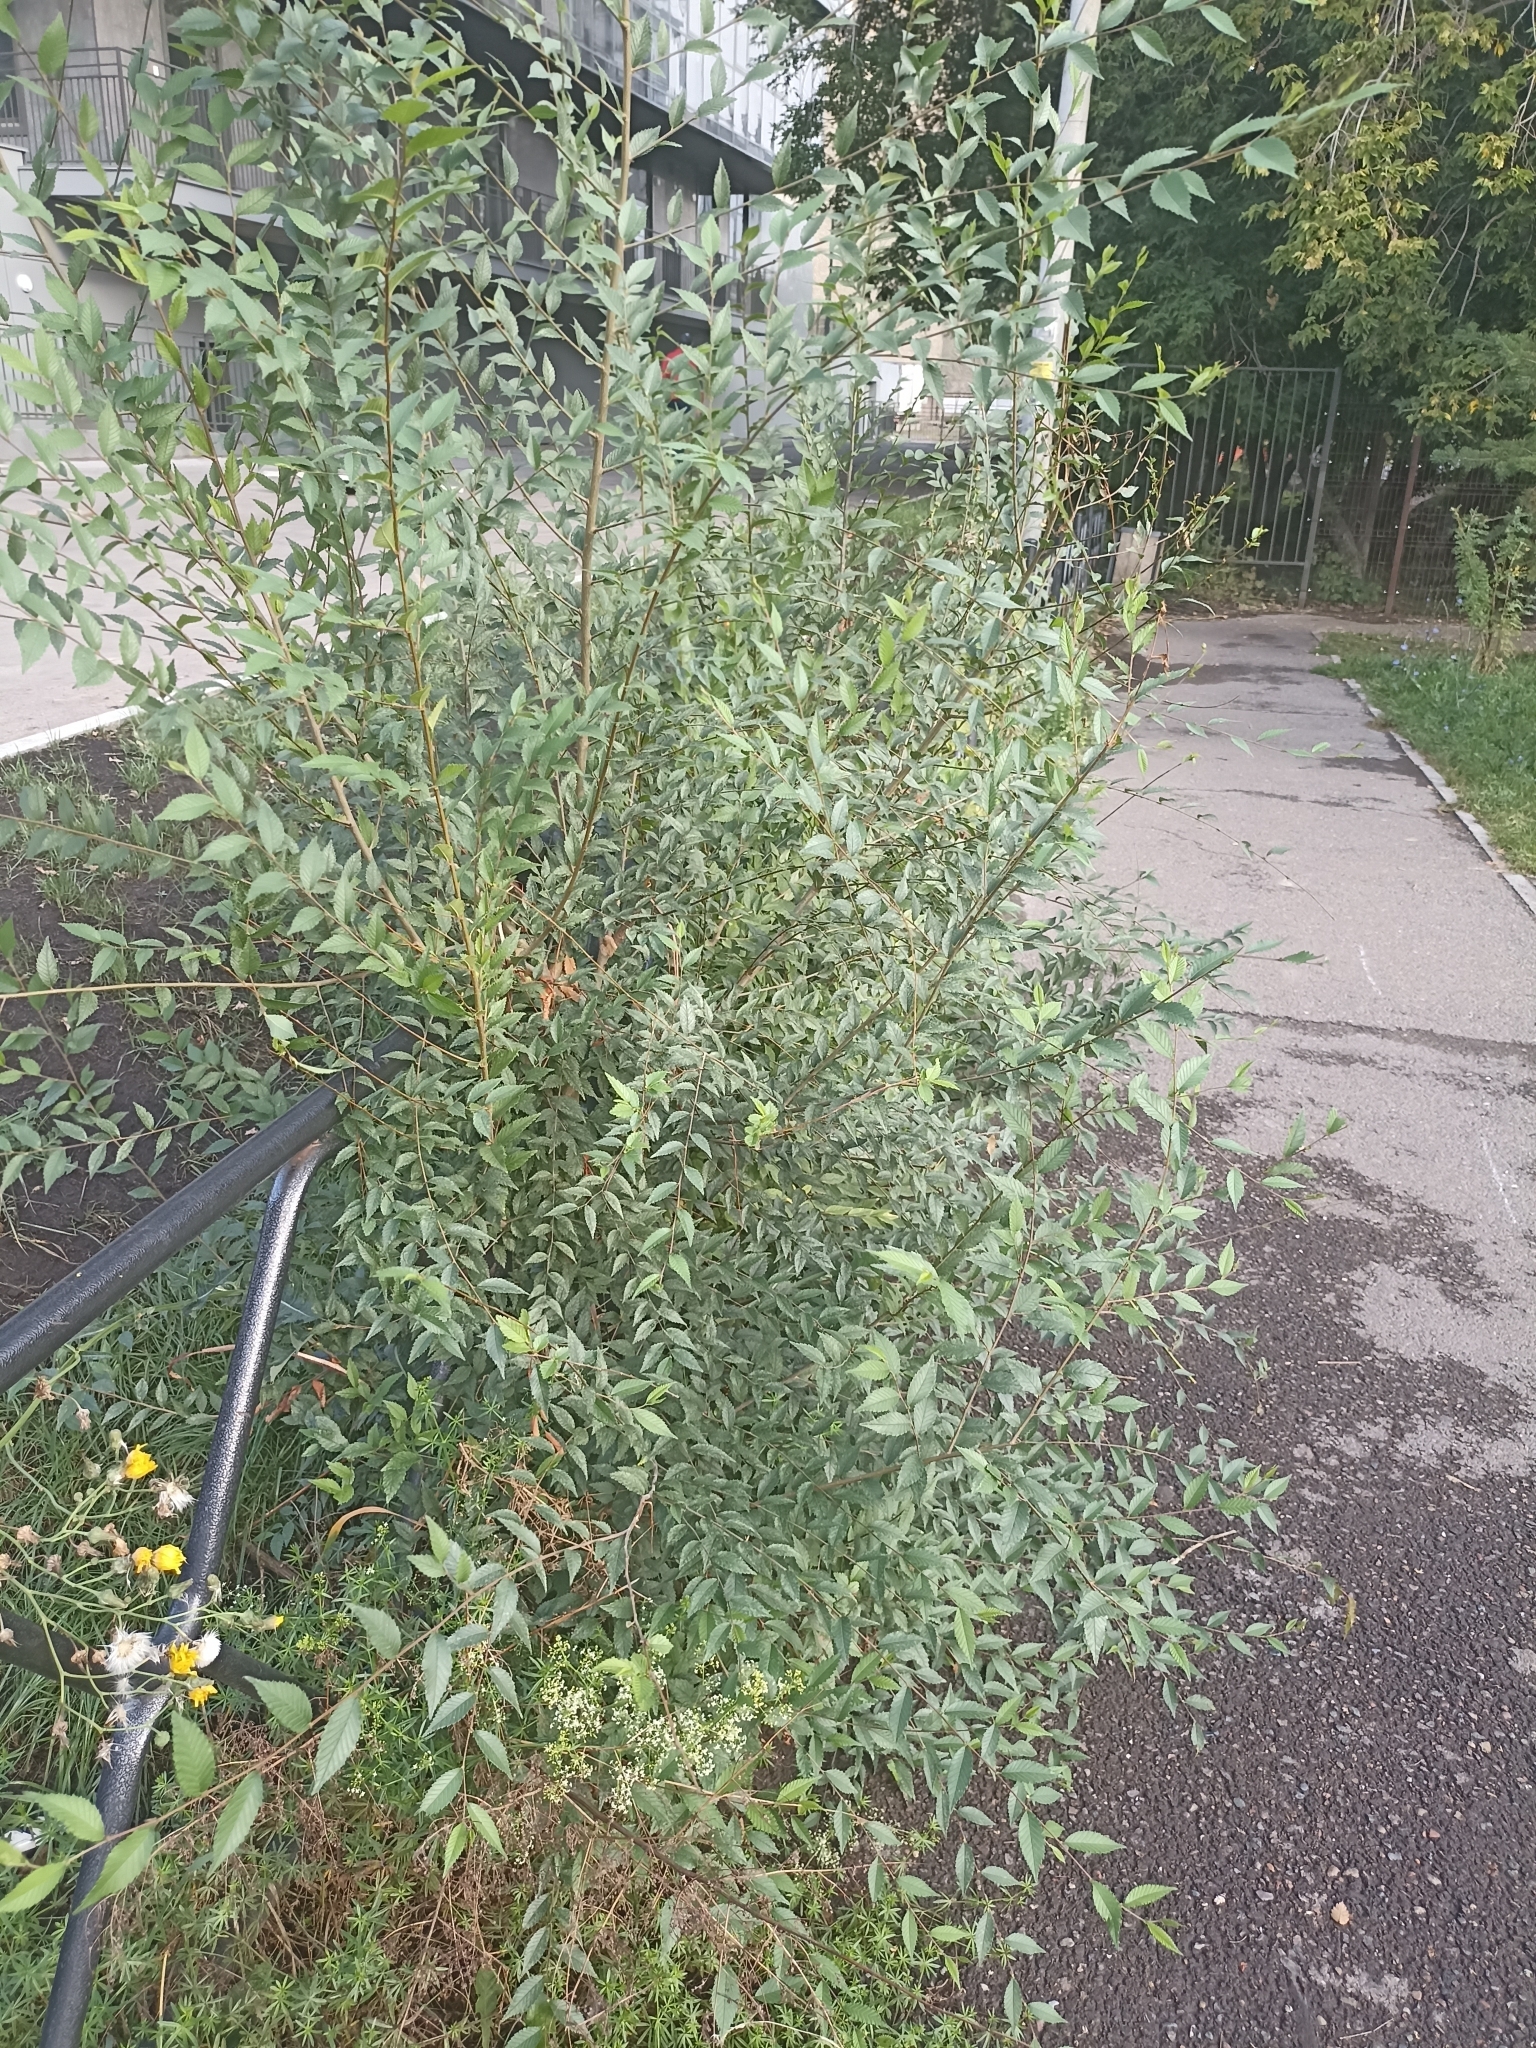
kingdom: Plantae
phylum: Tracheophyta
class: Magnoliopsida
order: Rosales
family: Ulmaceae
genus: Ulmus
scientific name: Ulmus pumila
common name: Siberian elm
